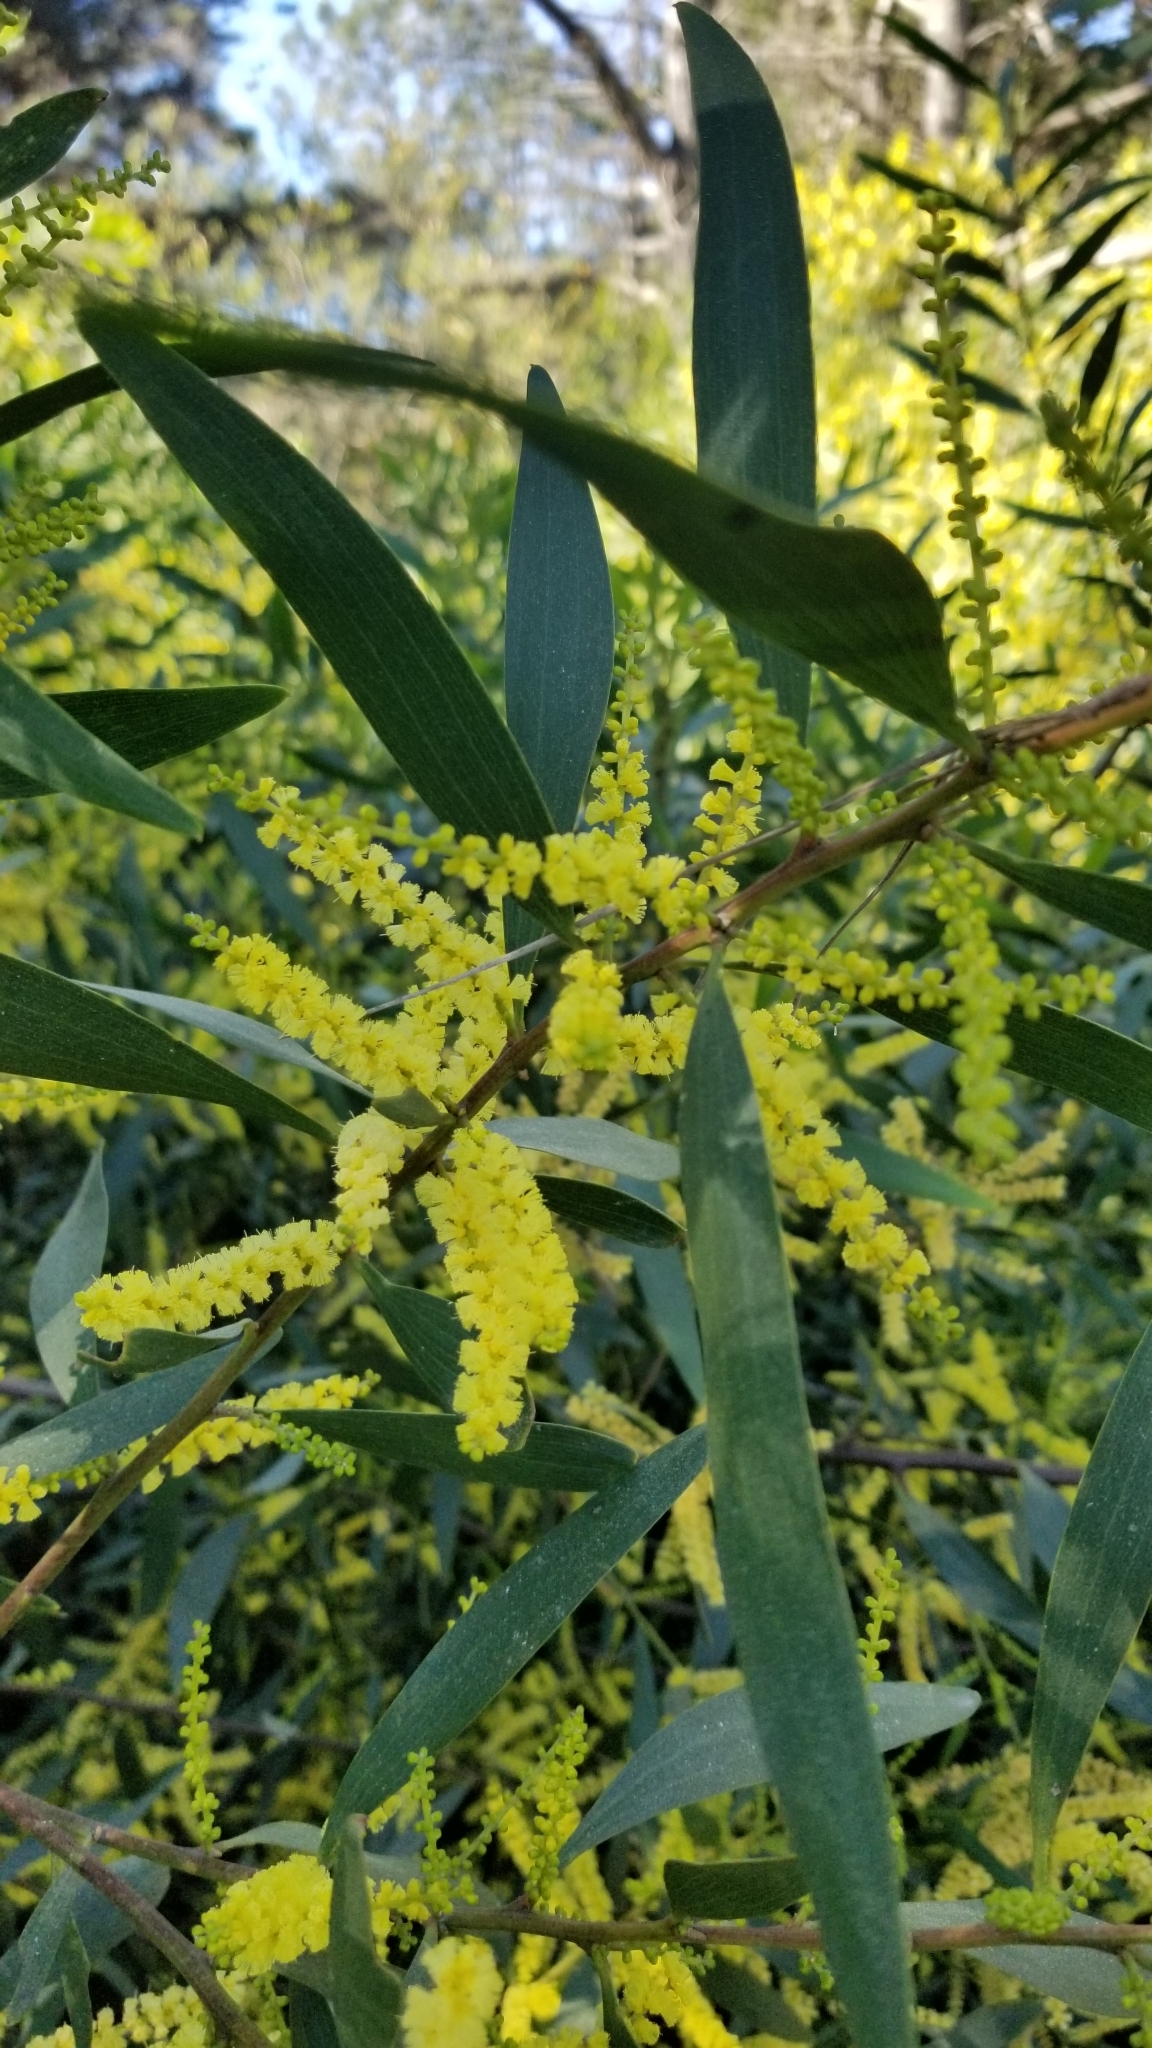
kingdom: Plantae
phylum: Tracheophyta
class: Magnoliopsida
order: Fabales
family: Fabaceae
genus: Acacia
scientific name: Acacia longifolia
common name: Sydney golden wattle
